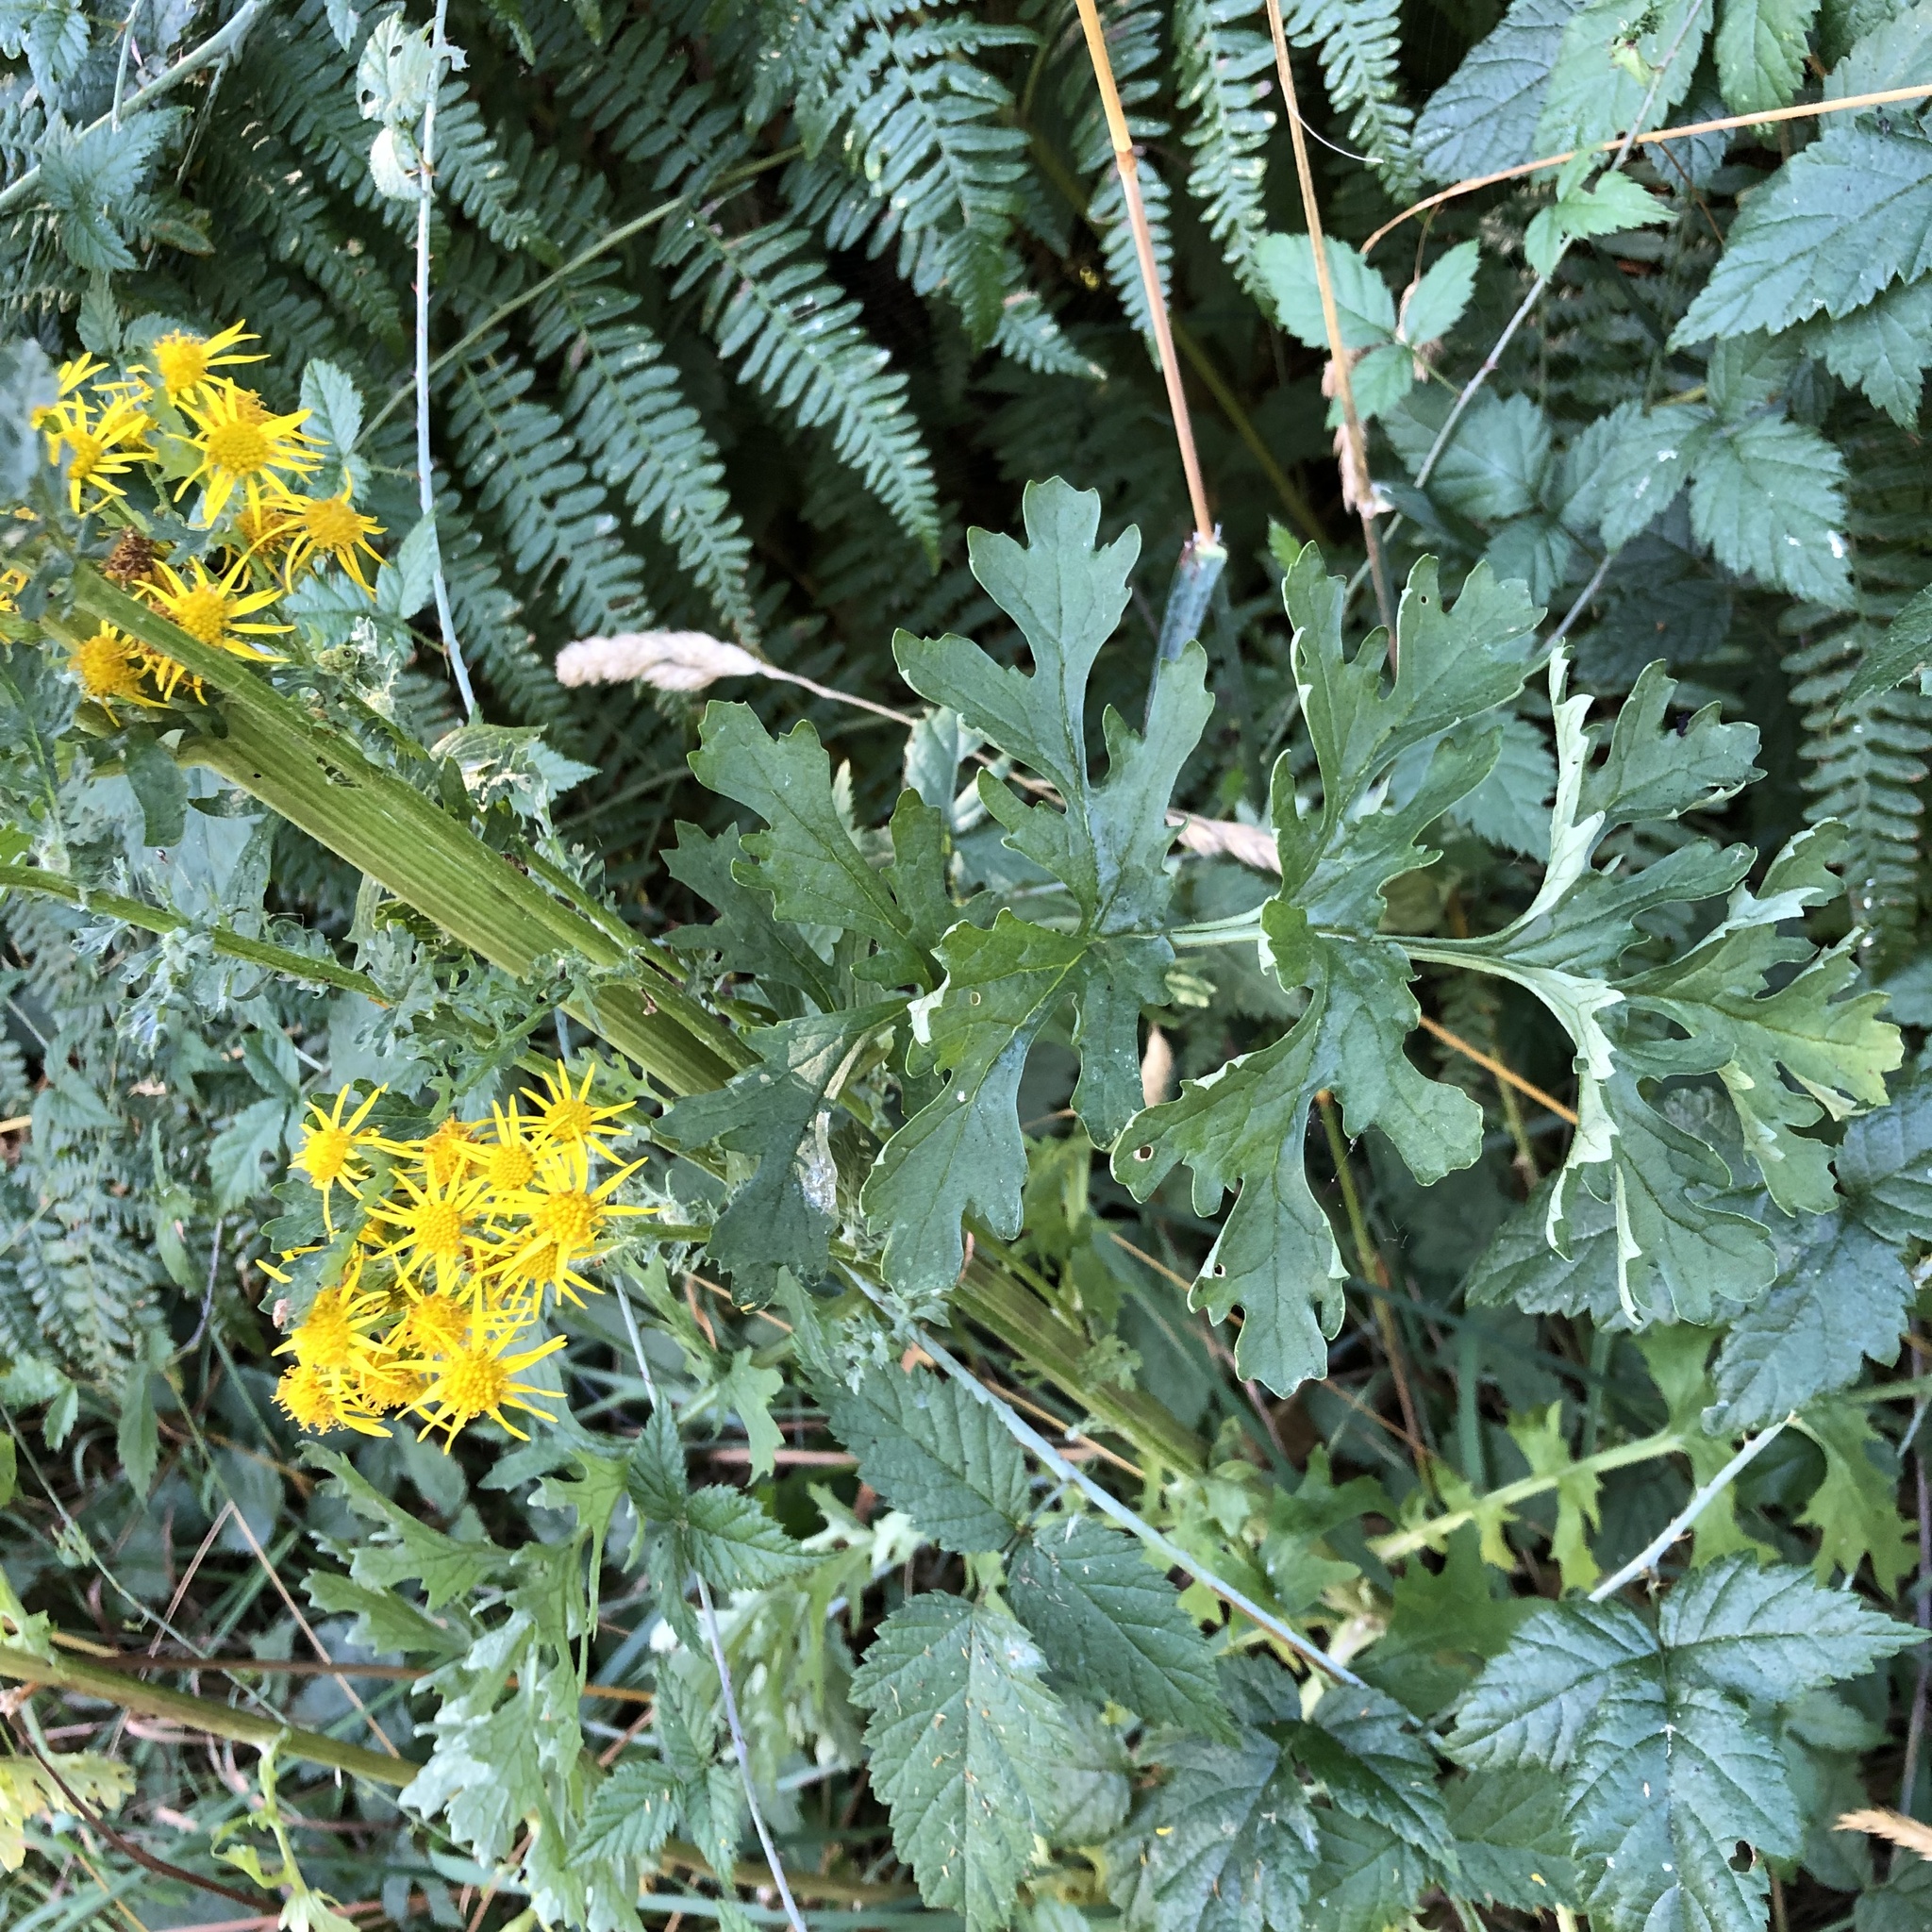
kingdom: Plantae
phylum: Tracheophyta
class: Magnoliopsida
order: Asterales
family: Asteraceae
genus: Jacobaea
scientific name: Jacobaea vulgaris
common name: Stinking willie
